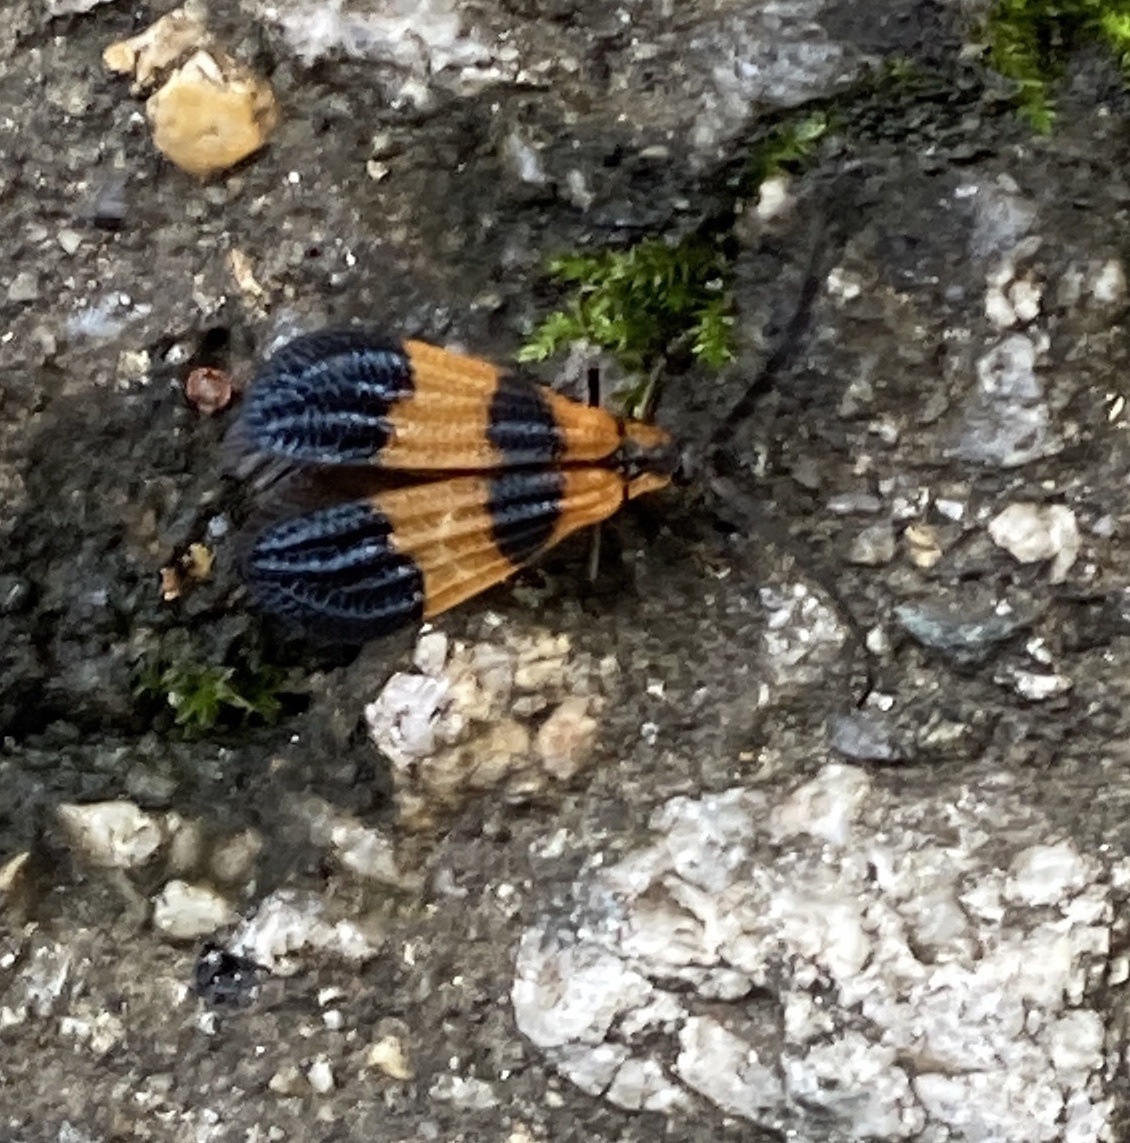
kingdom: Animalia
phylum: Arthropoda
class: Insecta
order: Coleoptera
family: Lycidae
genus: Calopteron
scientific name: Calopteron terminale
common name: End band net-winged beetle
